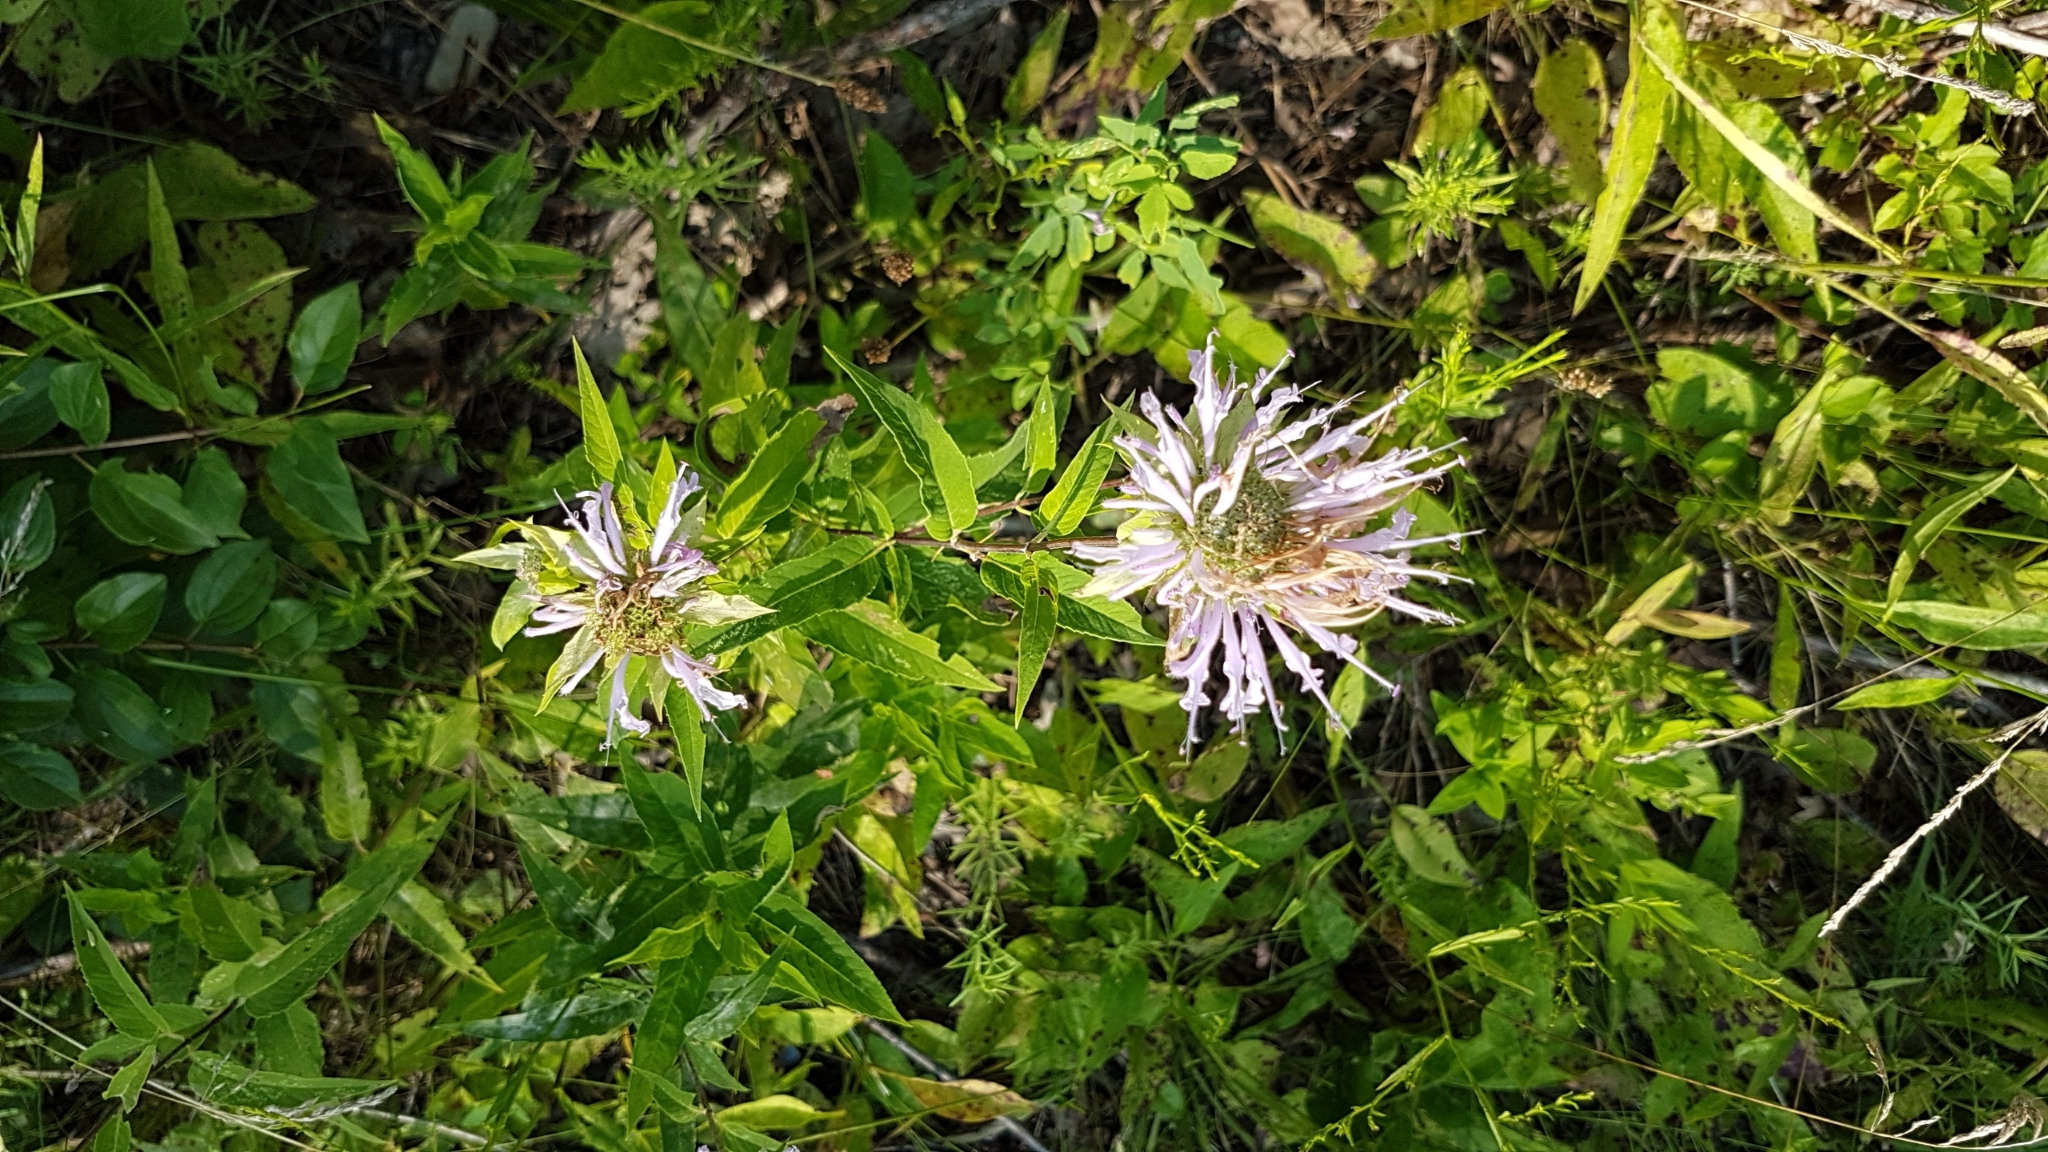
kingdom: Plantae
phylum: Tracheophyta
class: Magnoliopsida
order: Lamiales
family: Lamiaceae
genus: Monarda
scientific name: Monarda fistulosa
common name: Purple beebalm
